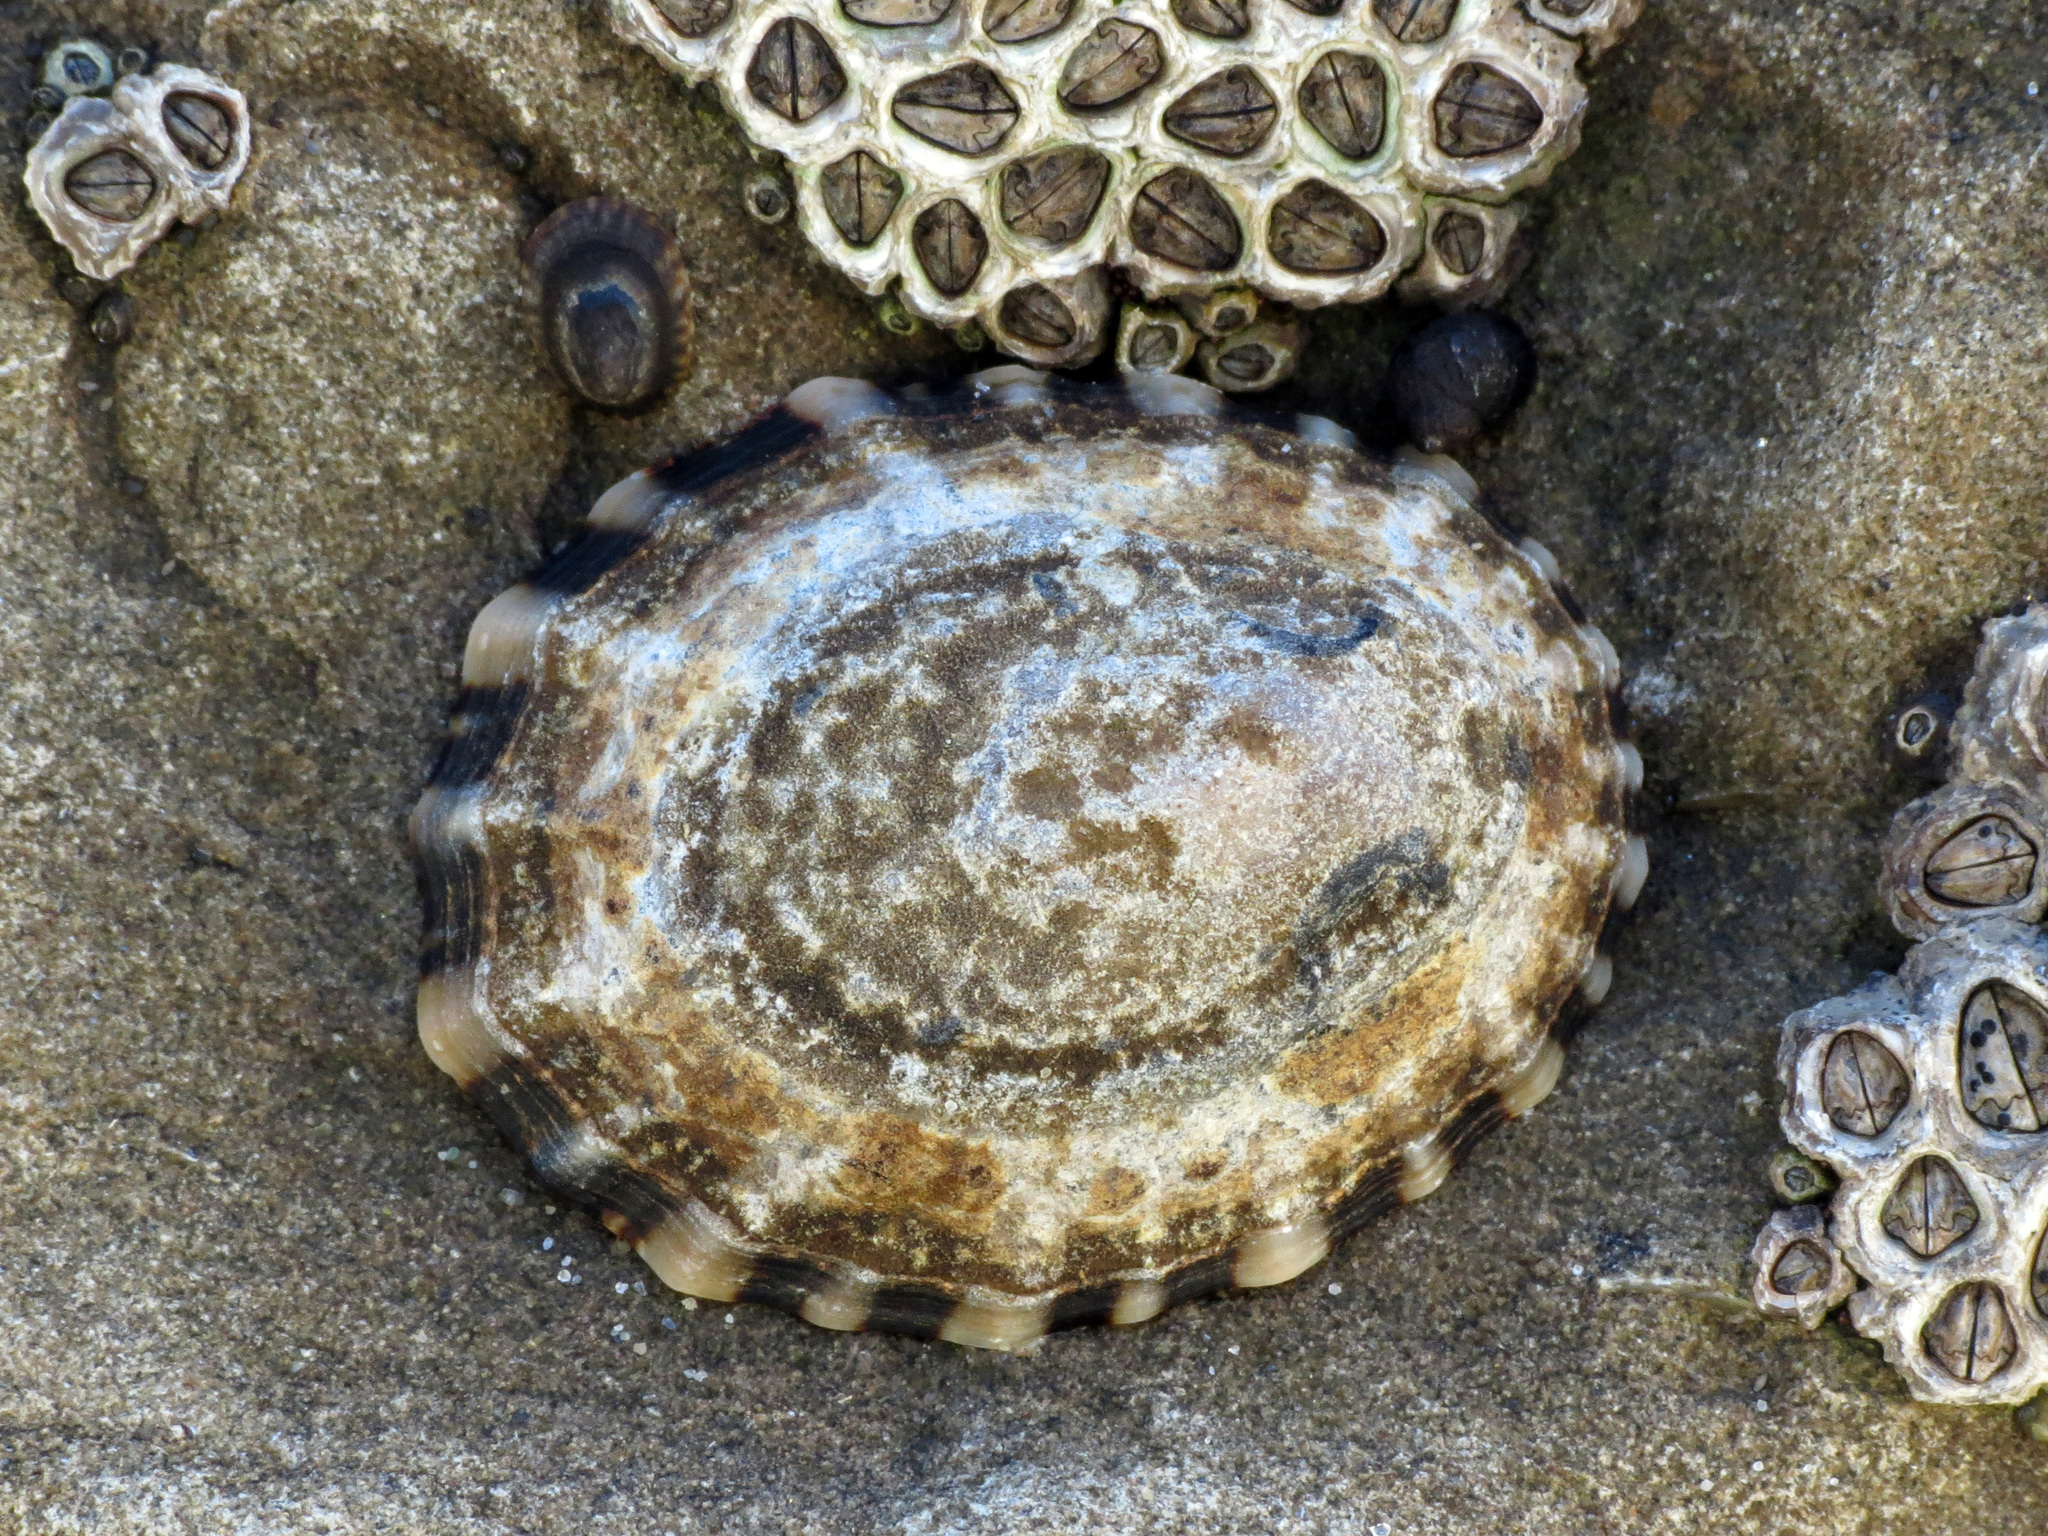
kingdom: Animalia
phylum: Mollusca
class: Gastropoda
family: Nacellidae
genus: Cellana
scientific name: Cellana ornata
